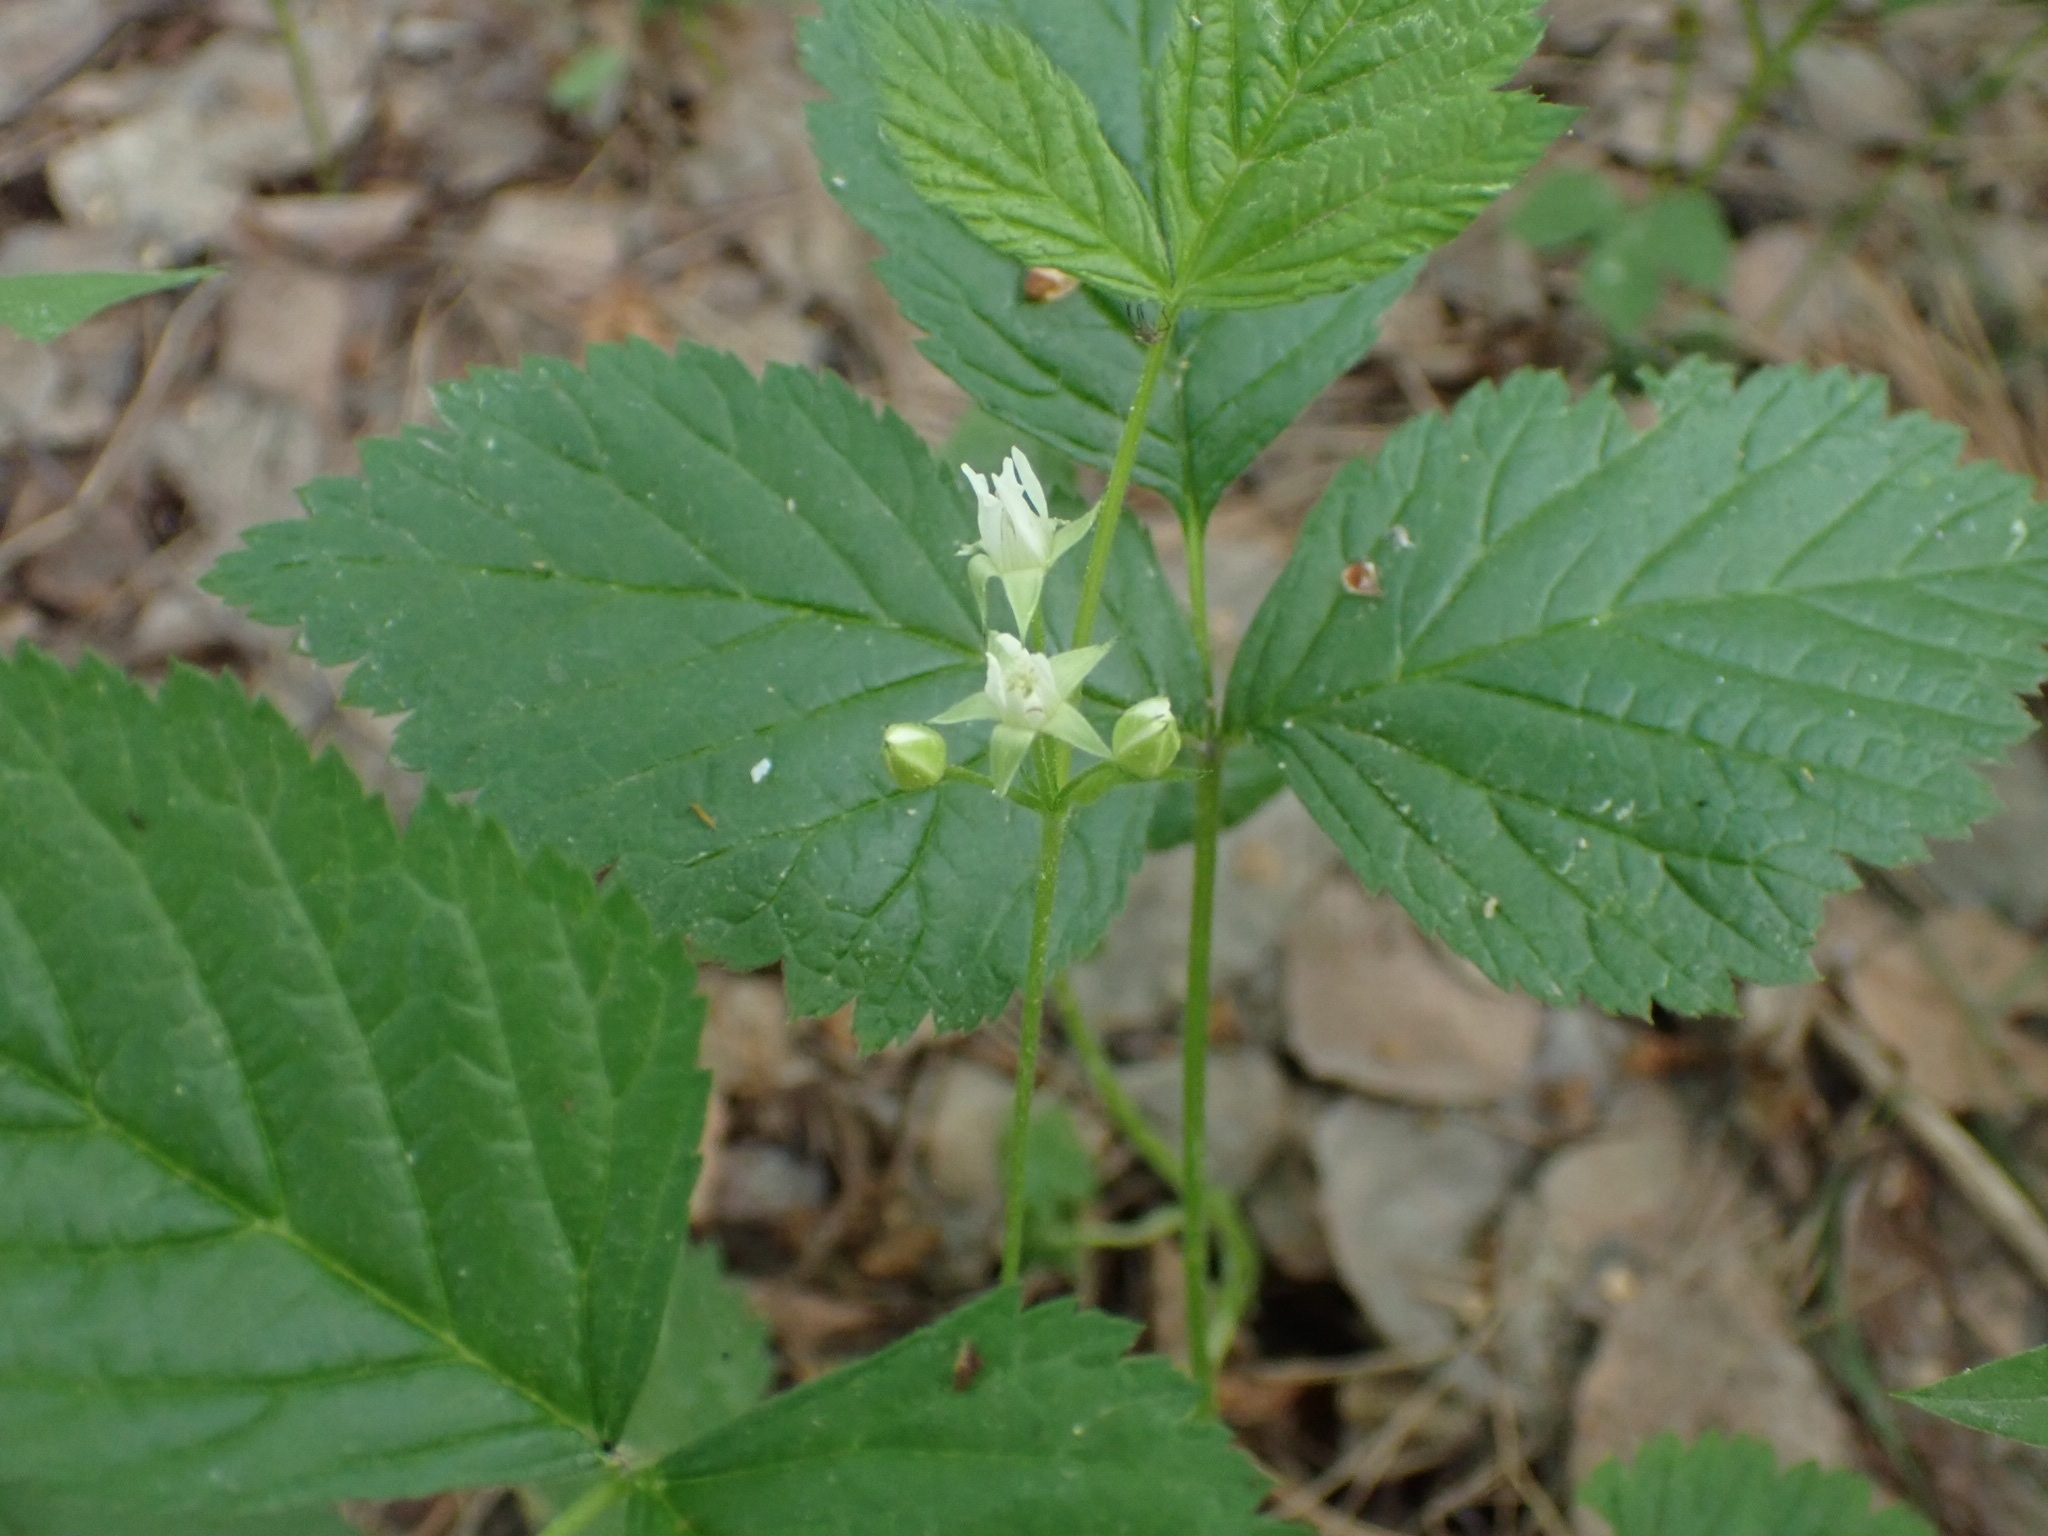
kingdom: Plantae
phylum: Tracheophyta
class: Magnoliopsida
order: Rosales
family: Rosaceae
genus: Rubus
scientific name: Rubus saxatilis
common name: Stone bramble
